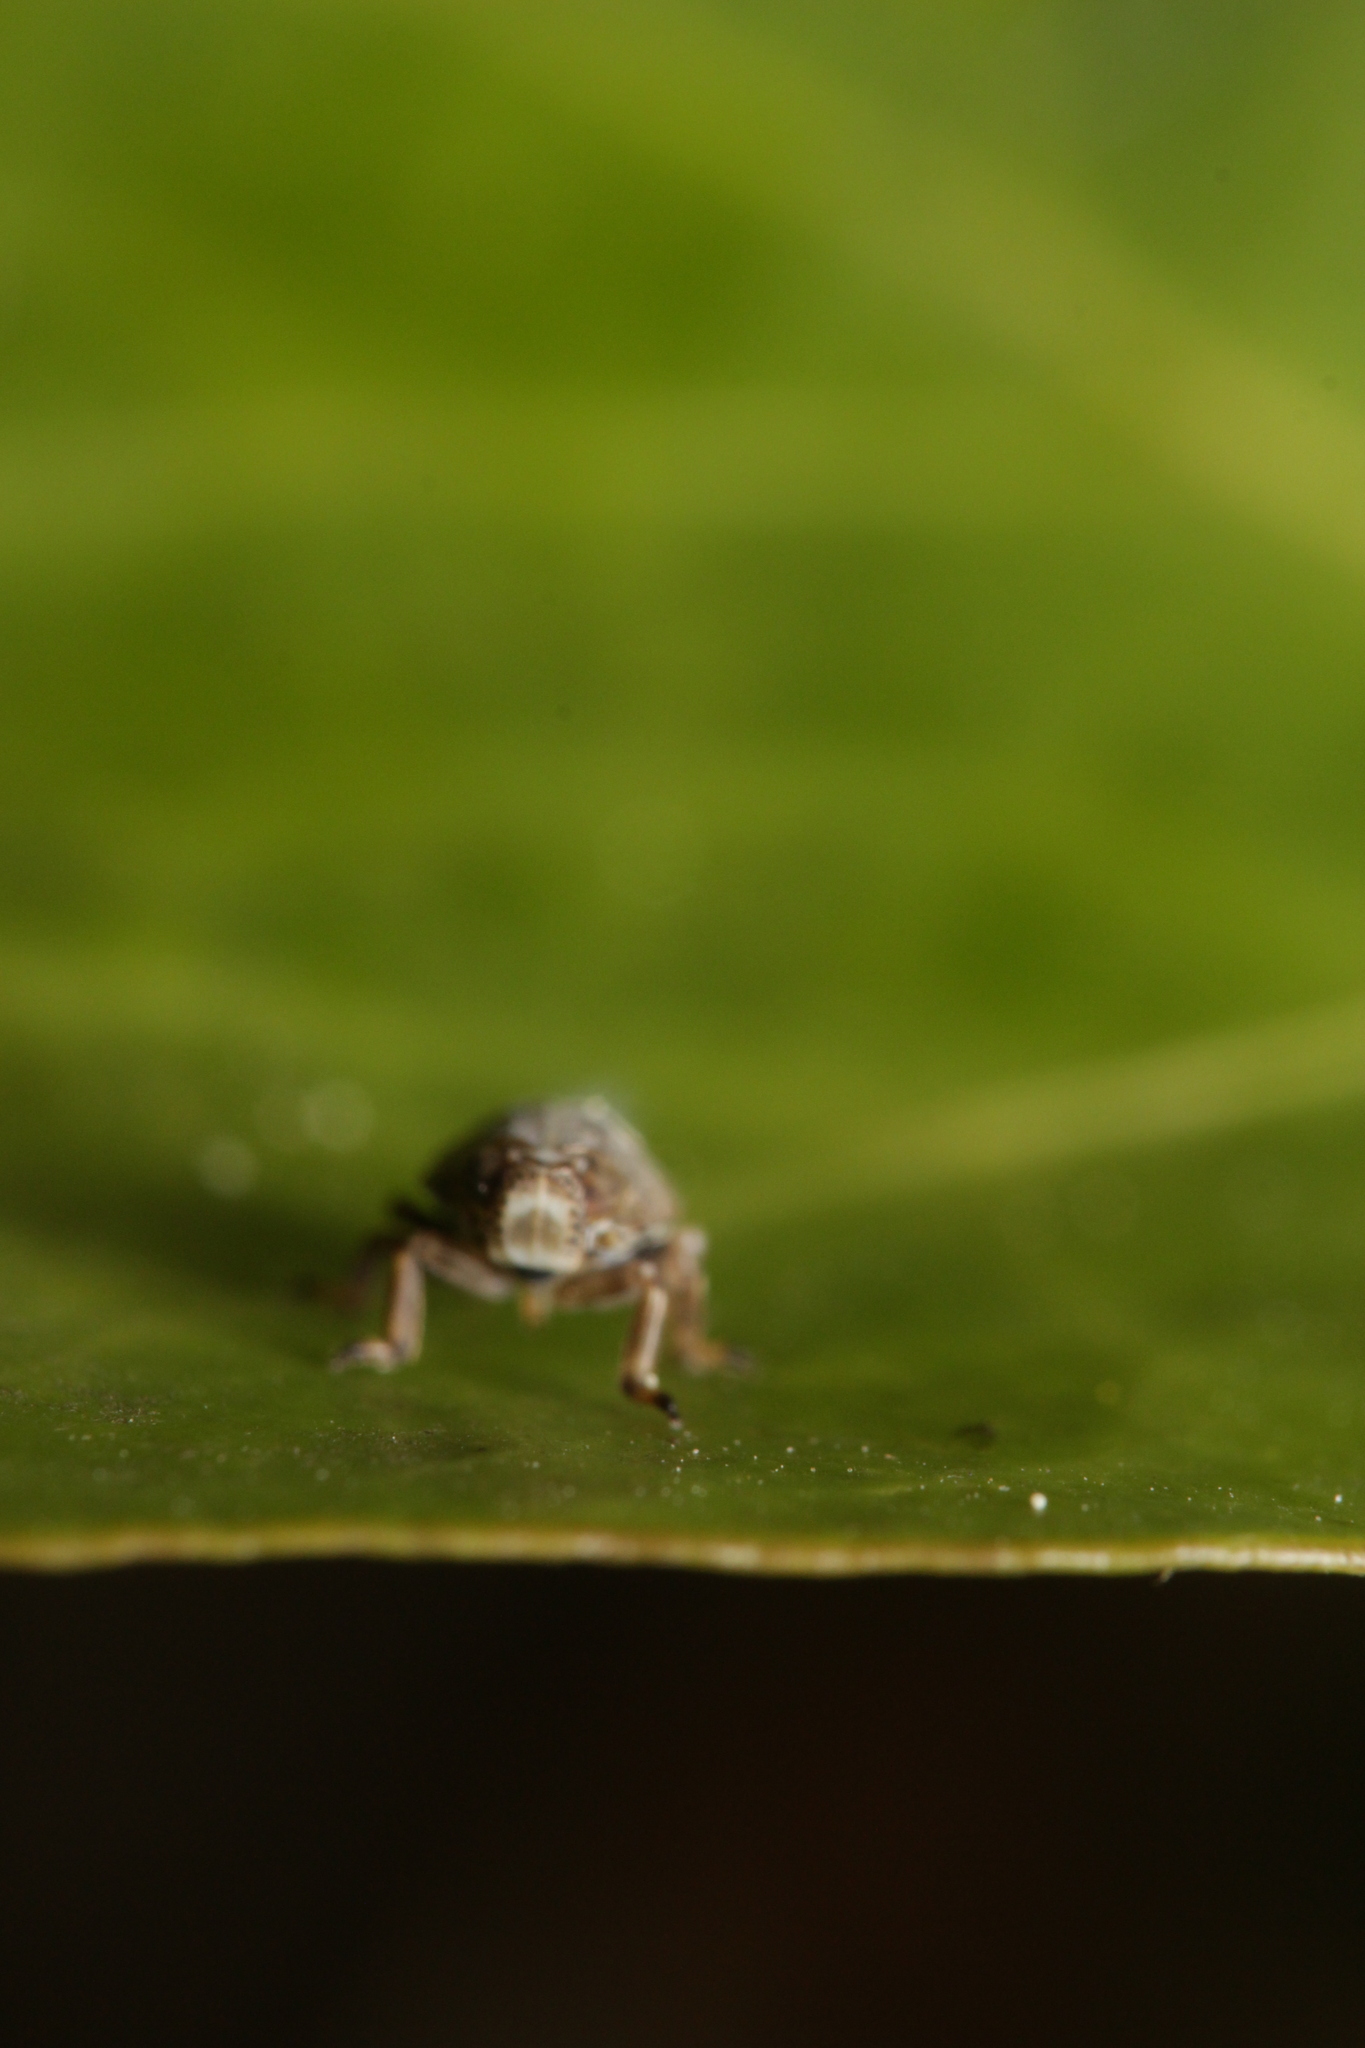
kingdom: Animalia
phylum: Arthropoda
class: Insecta
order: Hemiptera
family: Issidae
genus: Issus
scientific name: Issus coleoptratus
